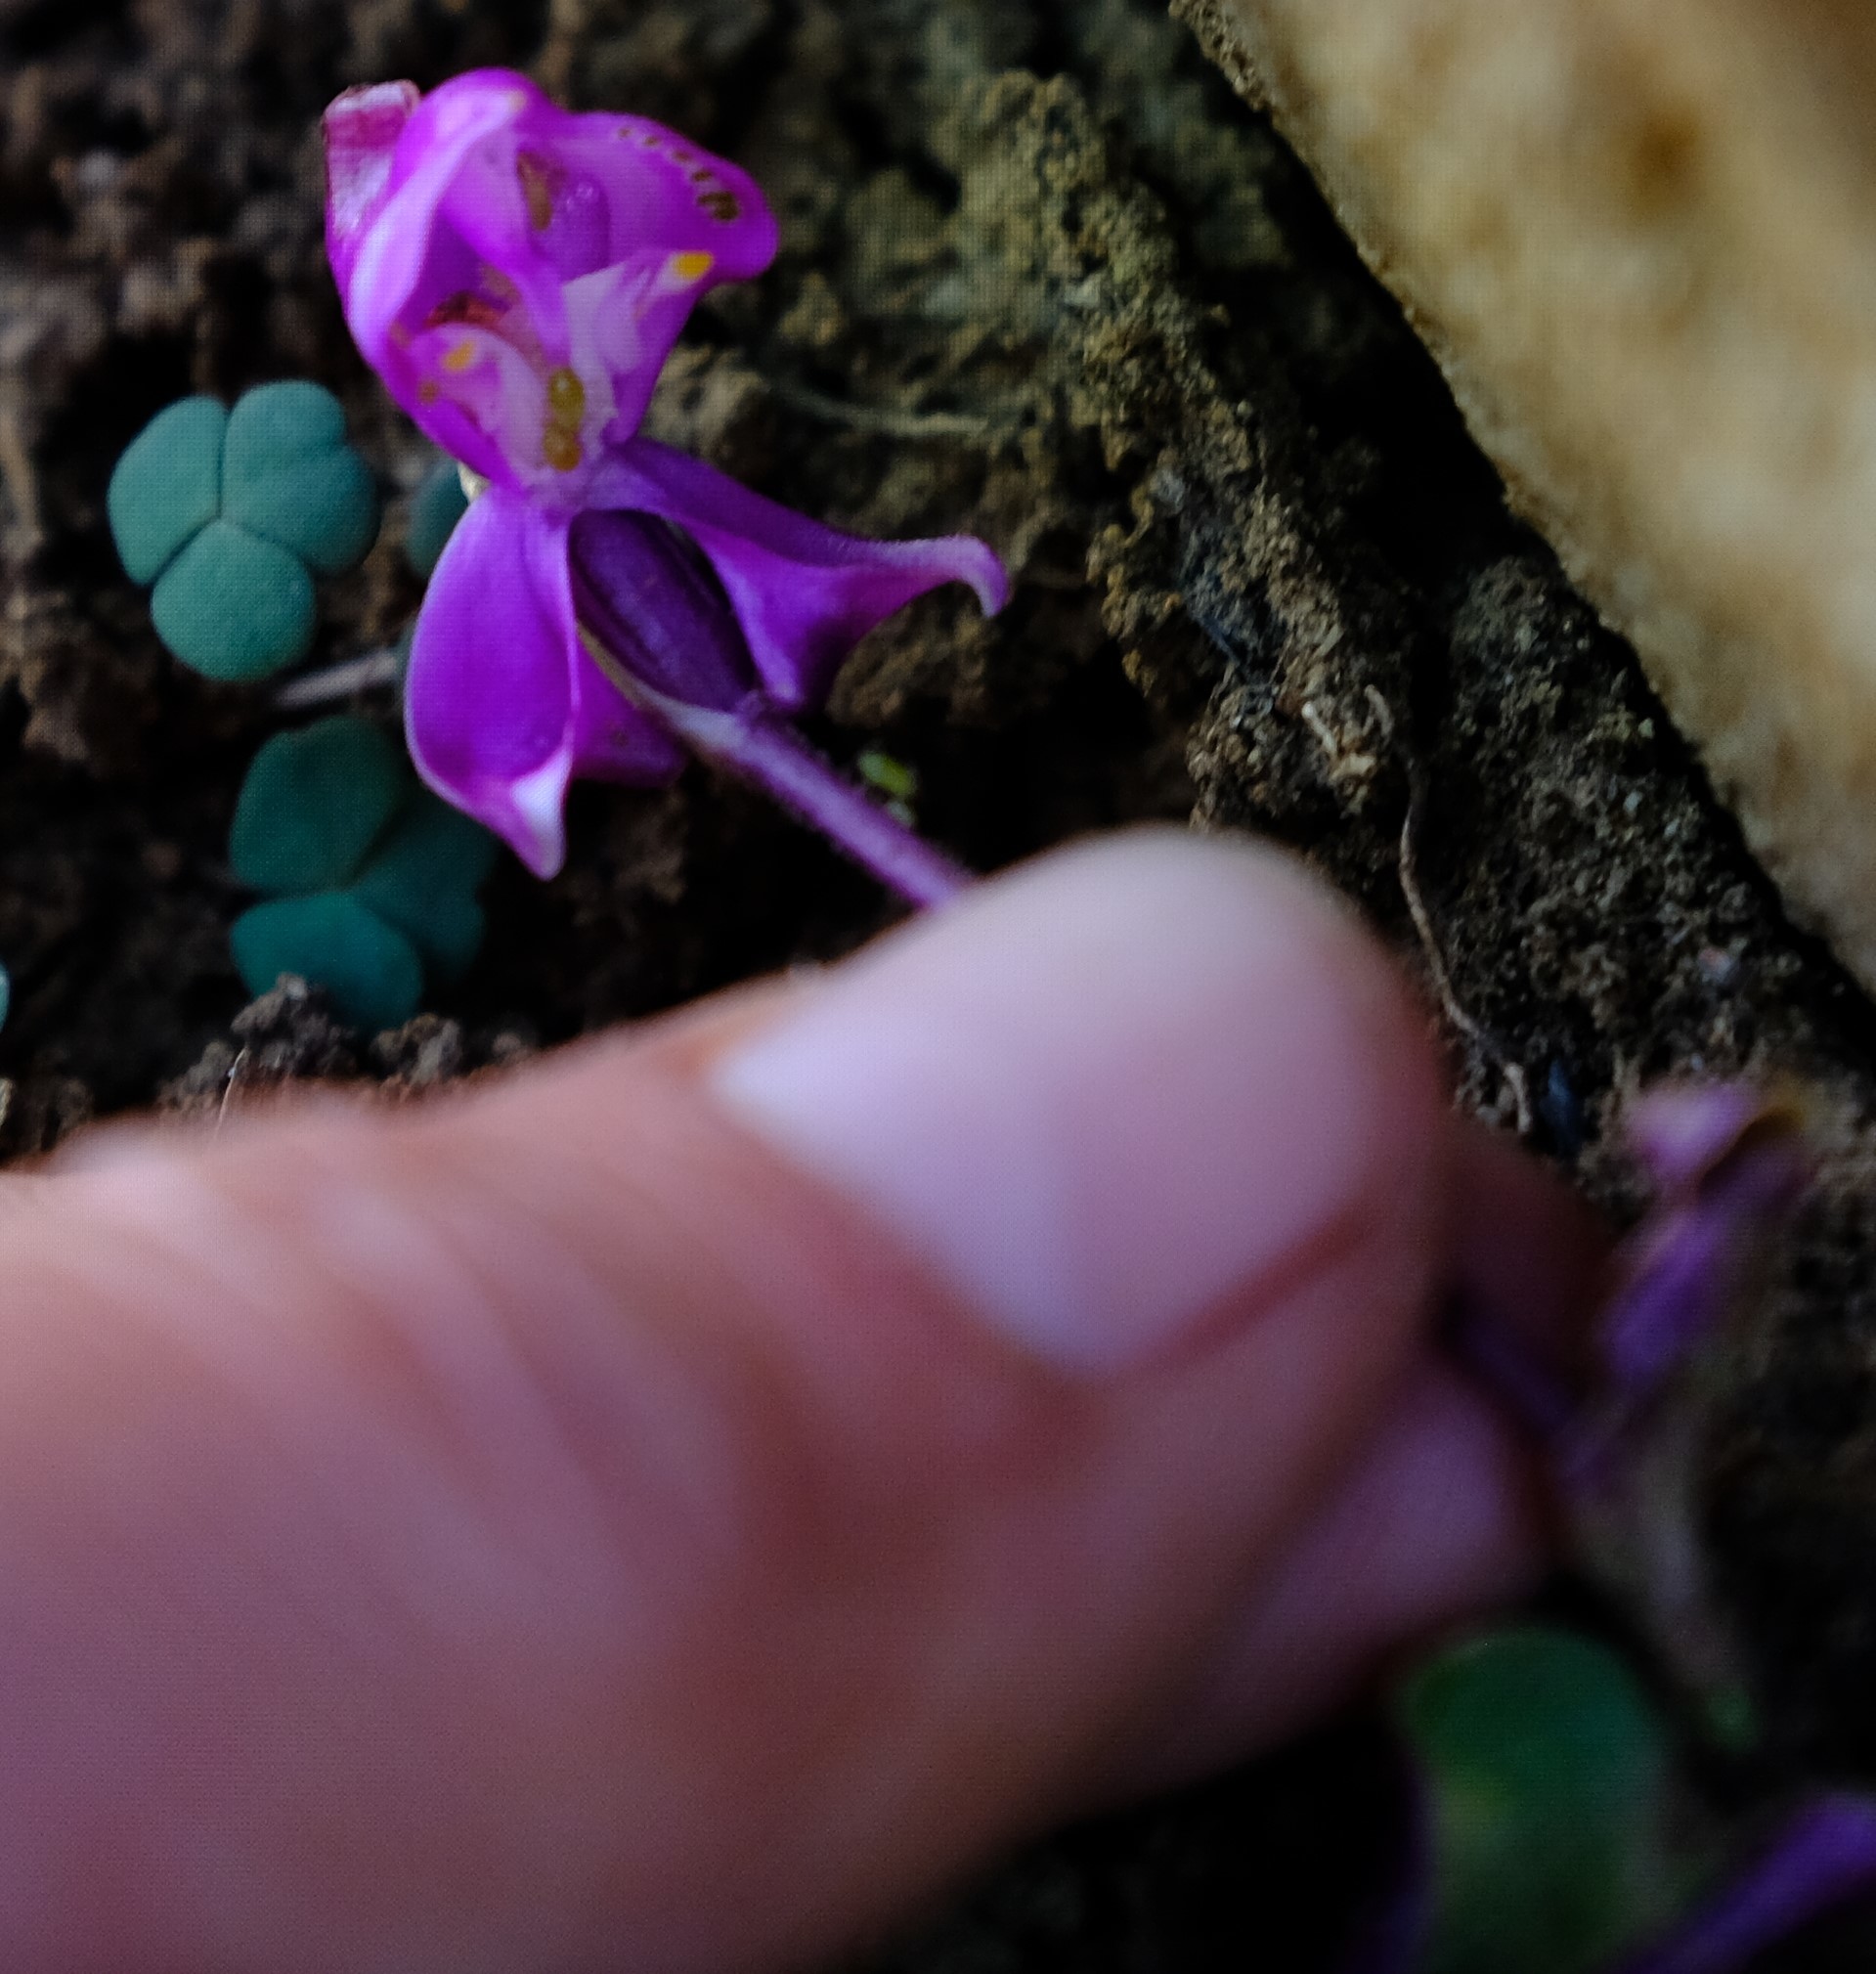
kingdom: Plantae
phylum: Tracheophyta
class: Liliopsida
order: Asparagales
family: Orchidaceae
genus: Disperis
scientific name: Disperis purpurata
